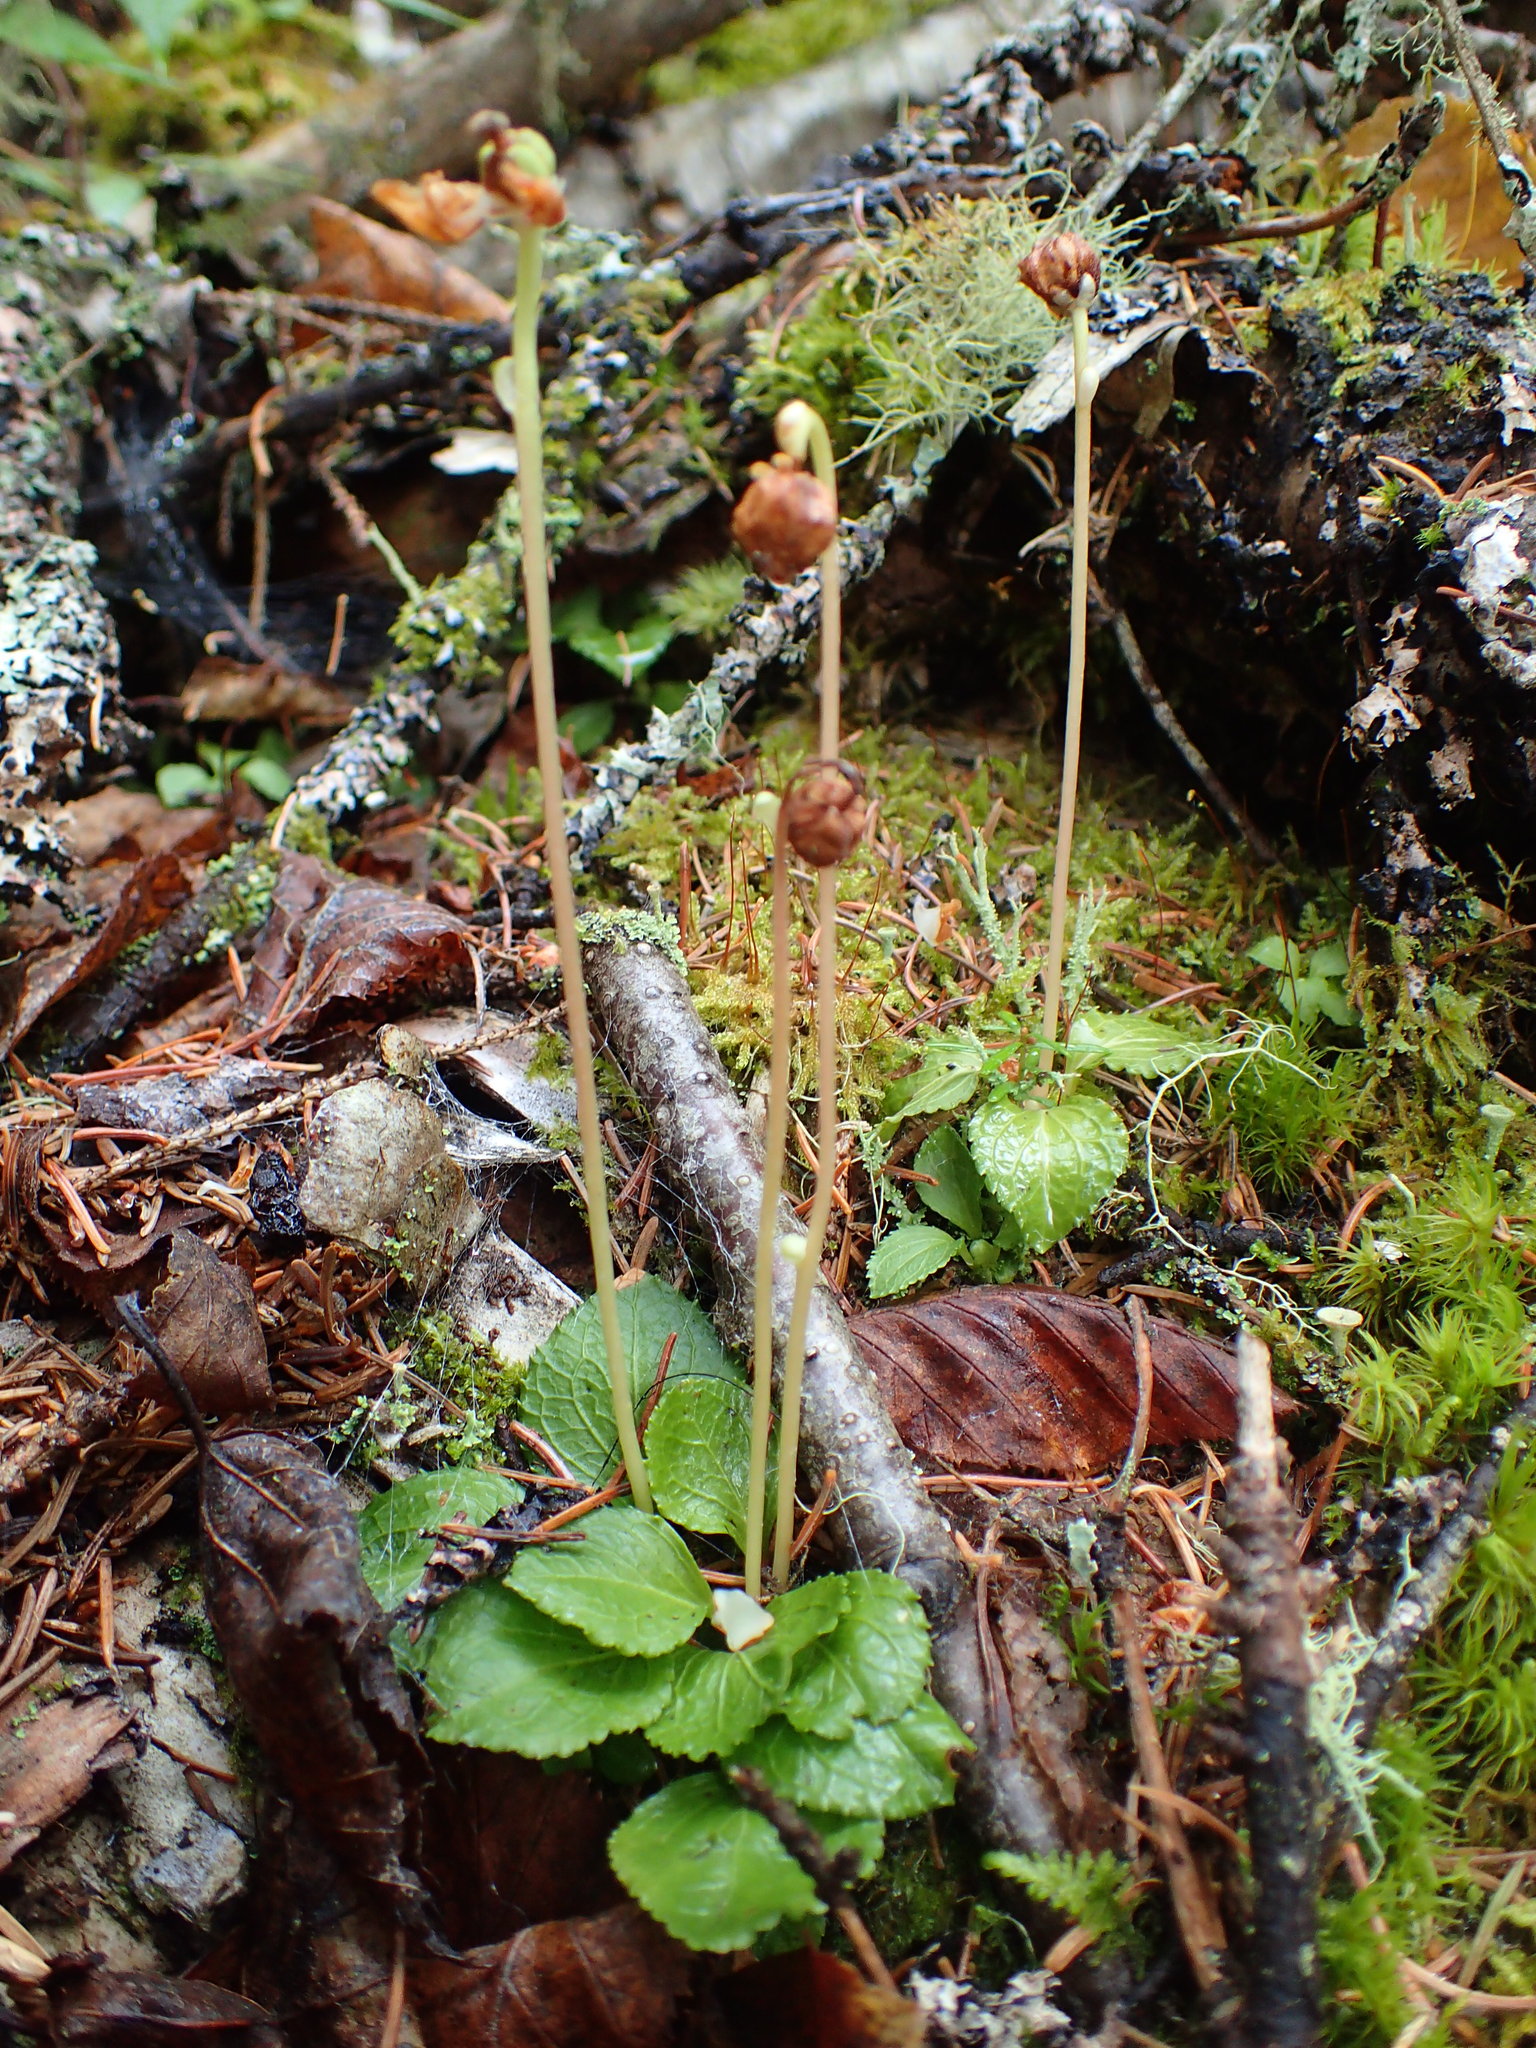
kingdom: Plantae
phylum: Tracheophyta
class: Magnoliopsida
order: Ericales
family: Ericaceae
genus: Moneses
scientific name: Moneses uniflora
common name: One-flowered wintergreen
